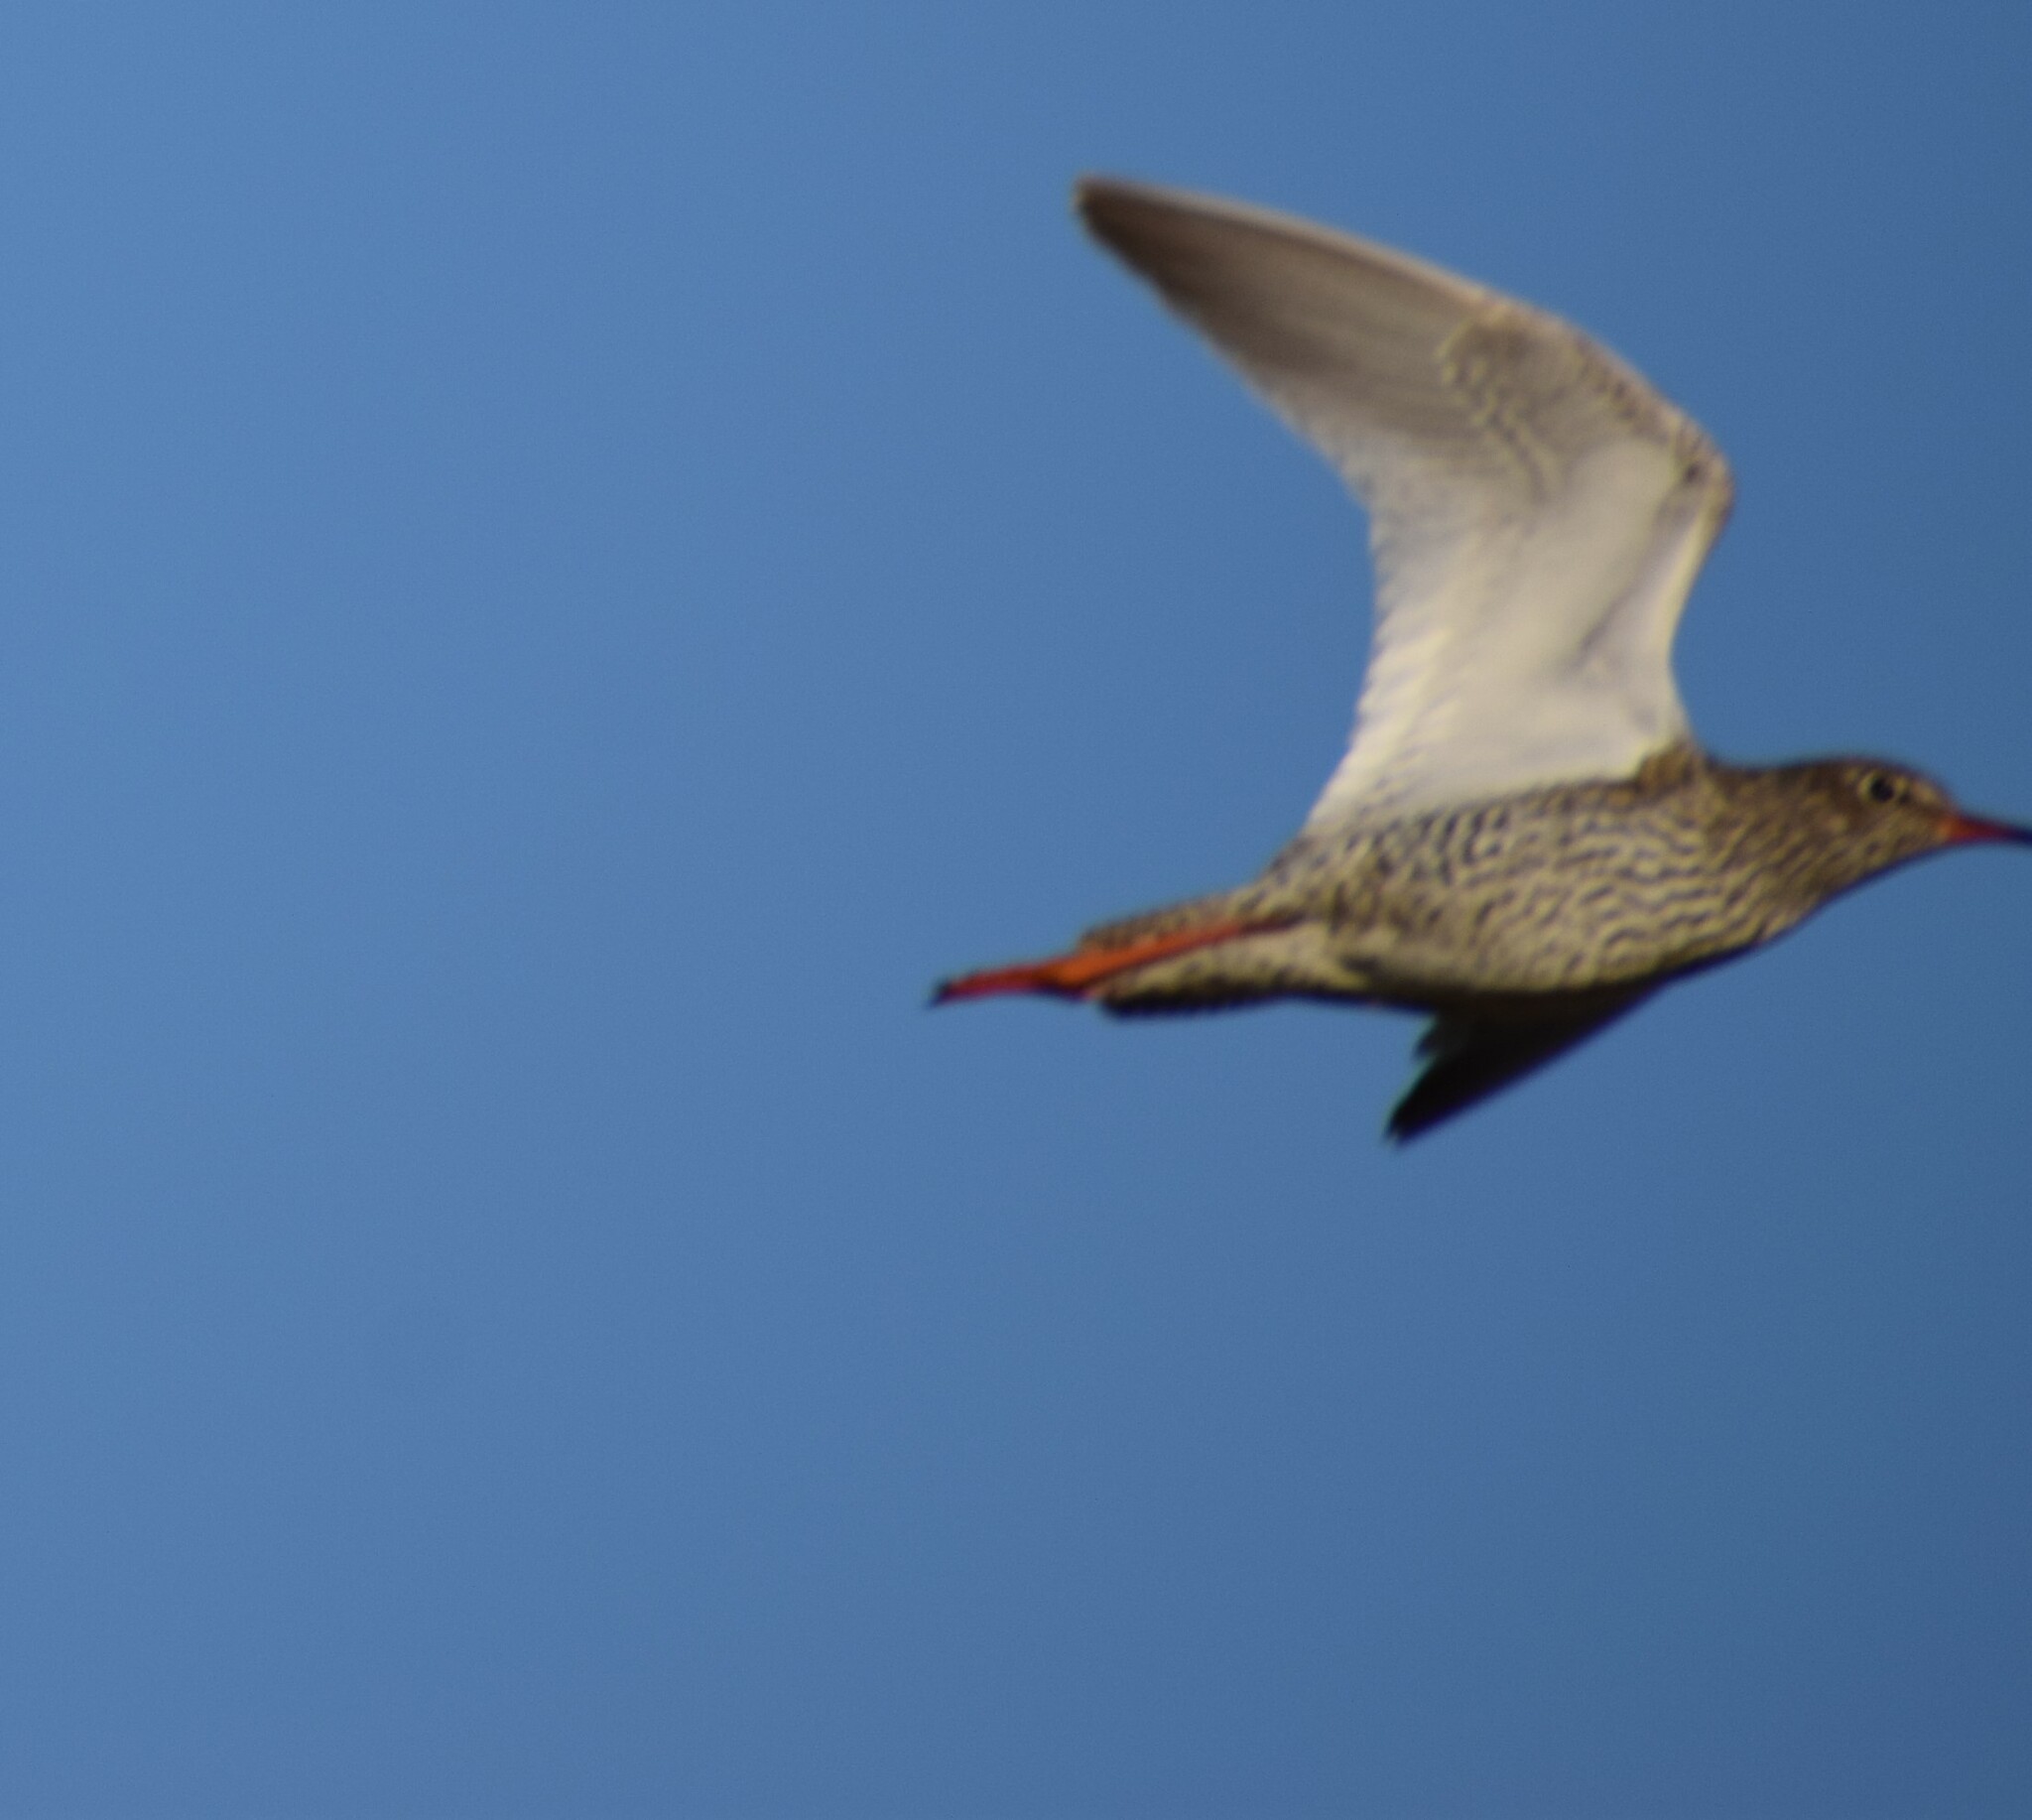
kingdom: Animalia
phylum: Chordata
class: Aves
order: Charadriiformes
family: Scolopacidae
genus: Tringa
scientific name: Tringa totanus
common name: Common redshank
